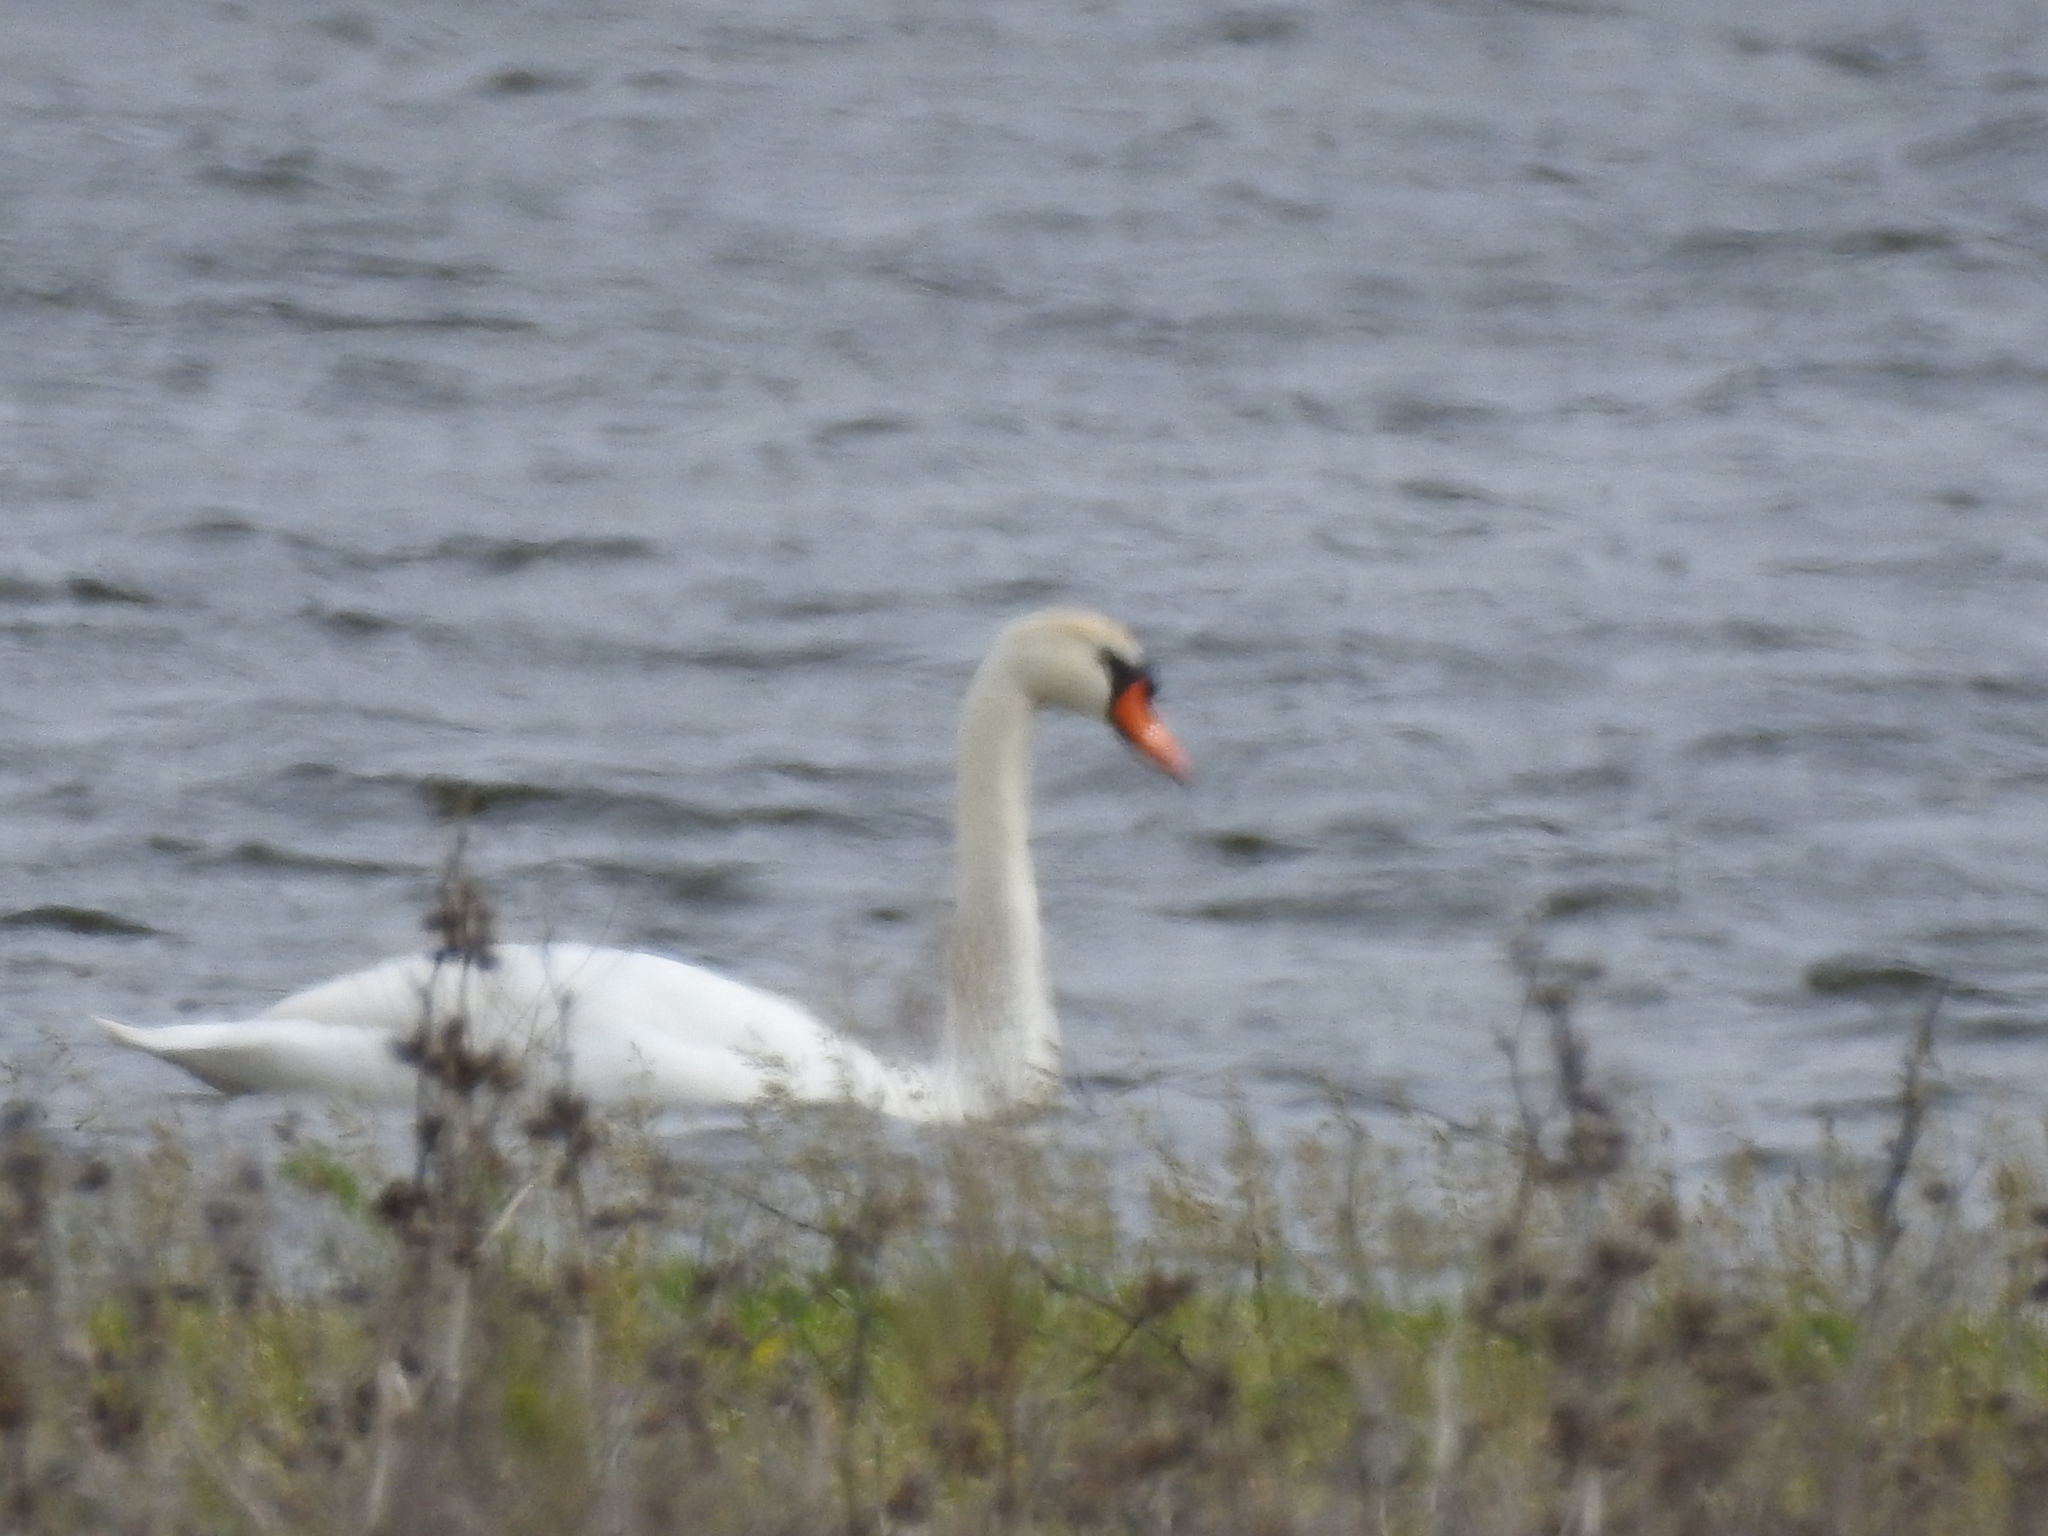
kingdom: Animalia
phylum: Chordata
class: Aves
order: Anseriformes
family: Anatidae
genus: Cygnus
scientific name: Cygnus olor
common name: Mute swan
